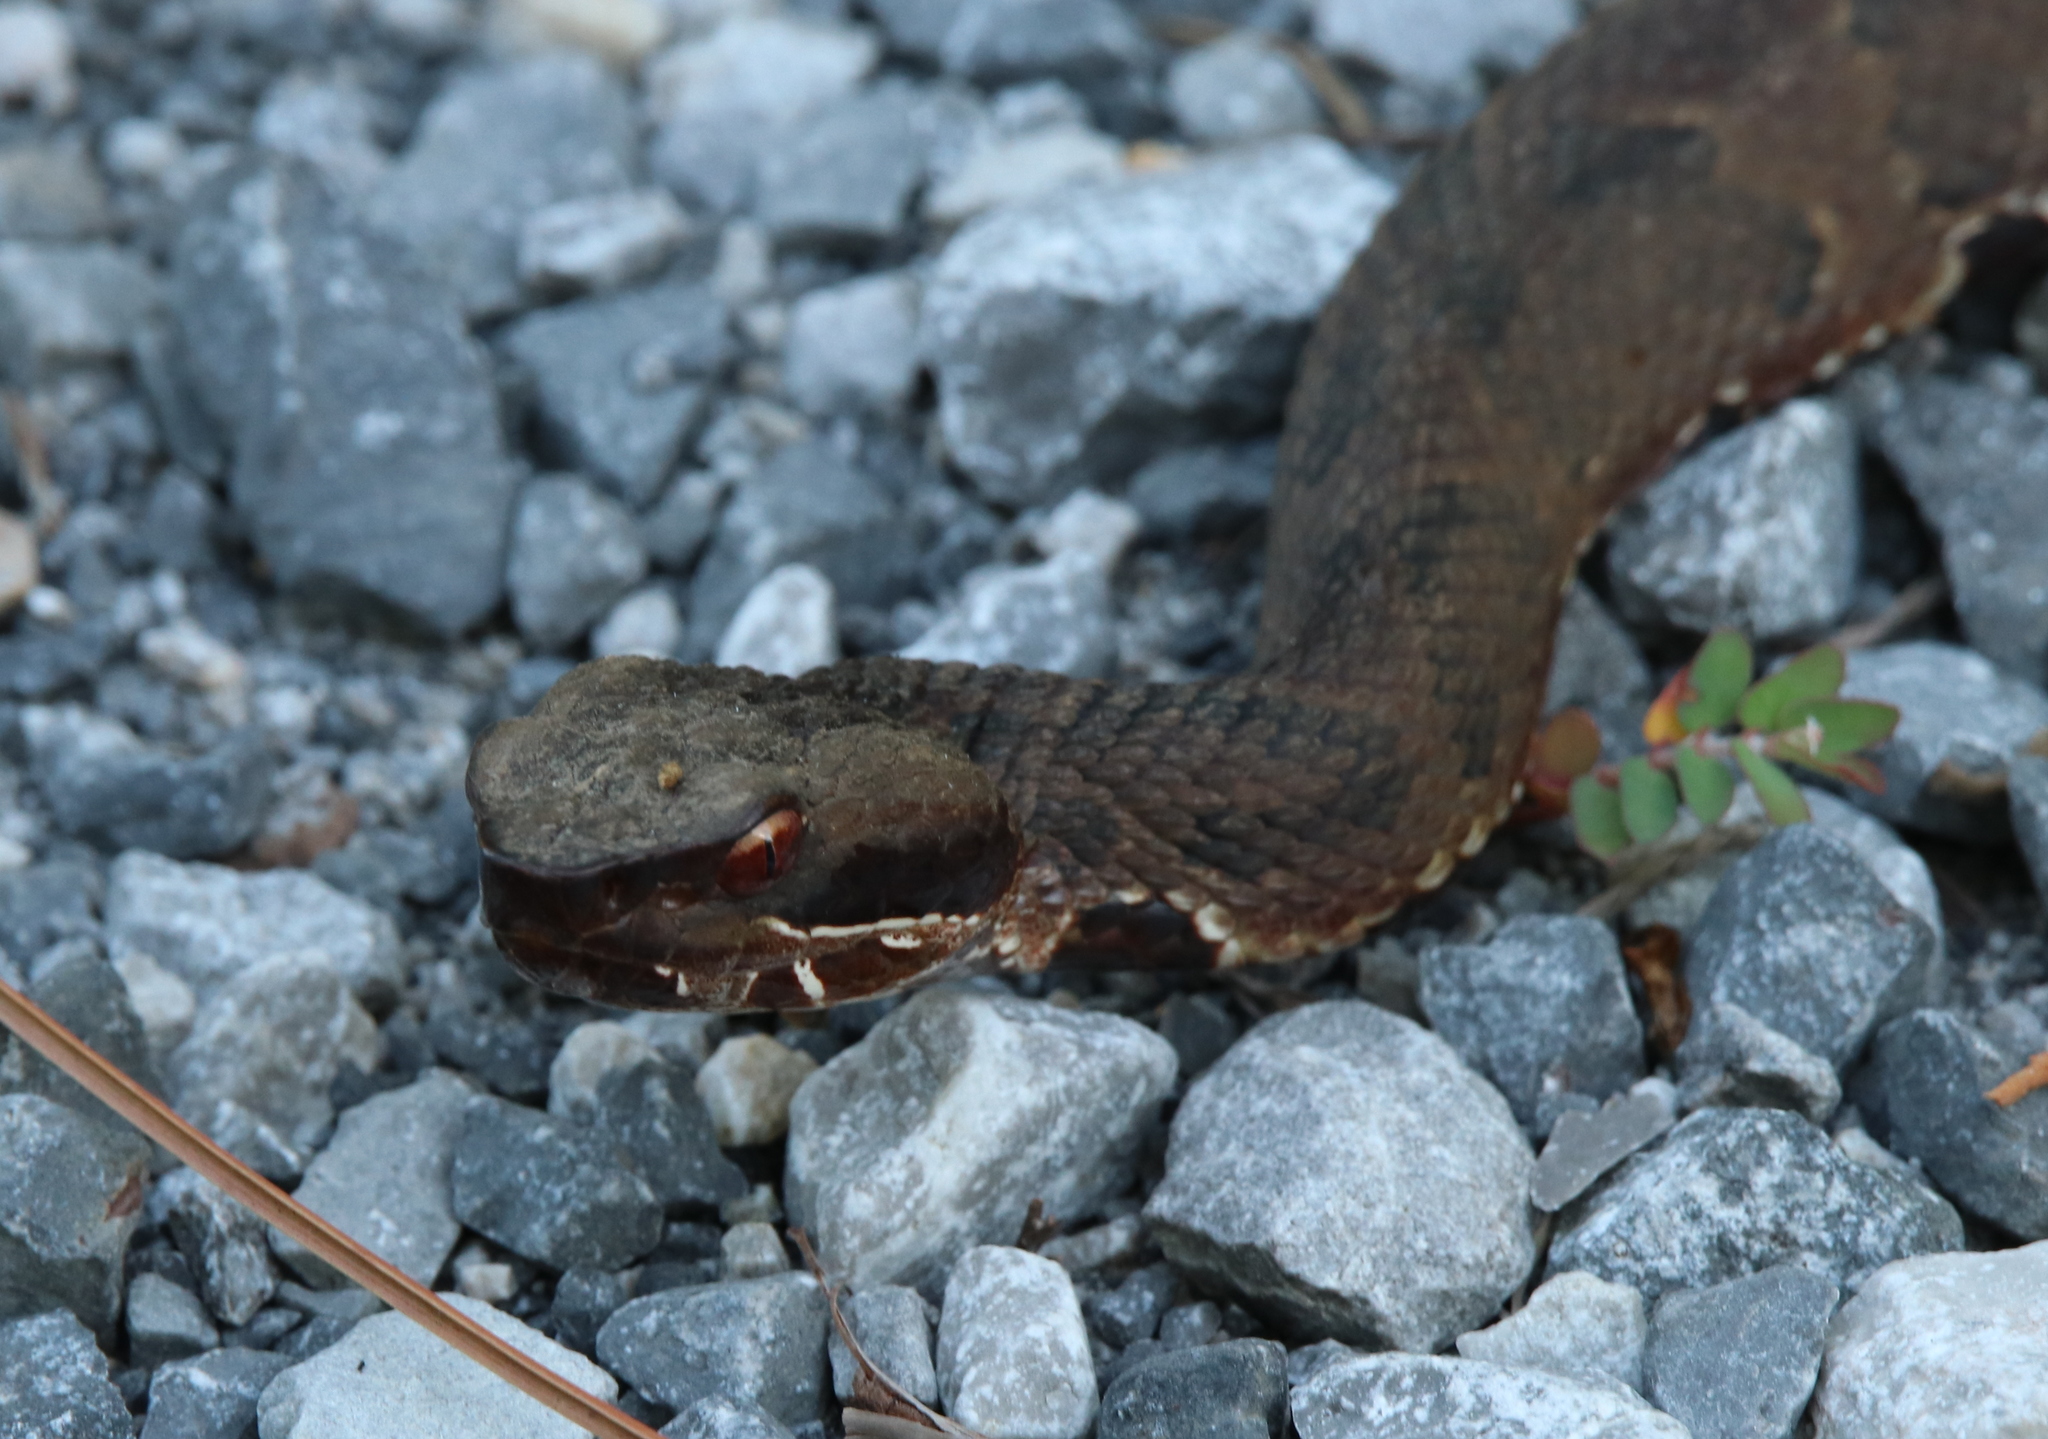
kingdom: Animalia
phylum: Chordata
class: Squamata
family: Viperidae
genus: Agkistrodon
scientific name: Agkistrodon piscivorus
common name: Cottonmouth
